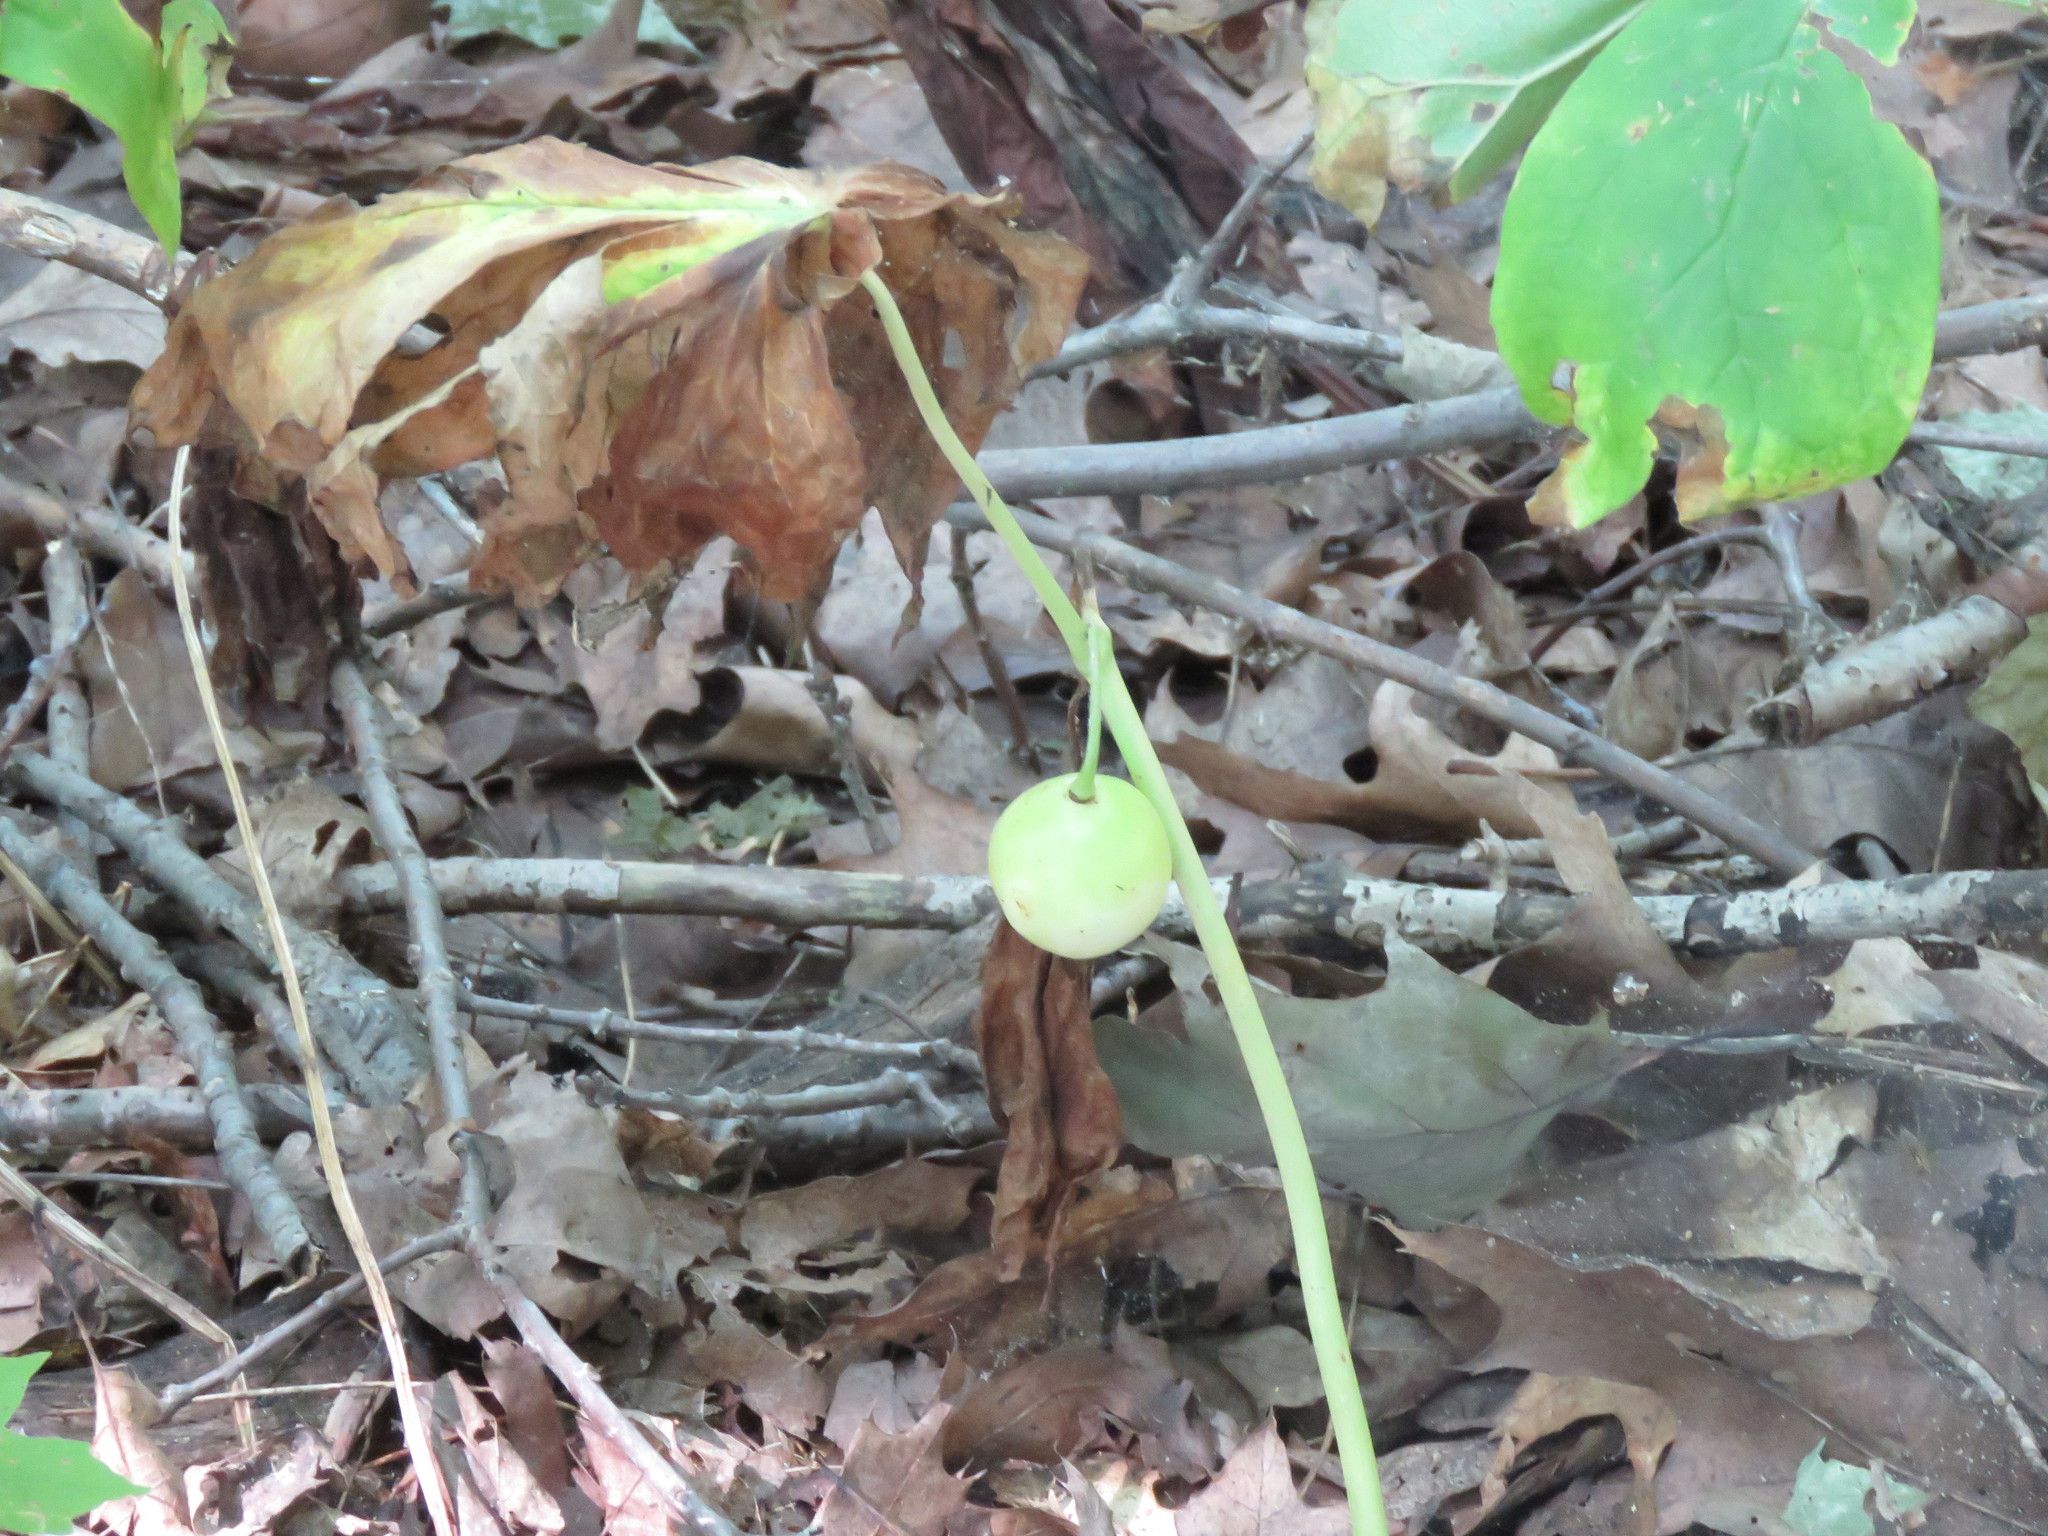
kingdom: Plantae
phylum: Tracheophyta
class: Magnoliopsida
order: Ranunculales
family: Berberidaceae
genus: Podophyllum
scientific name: Podophyllum peltatum
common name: Wild mandrake
